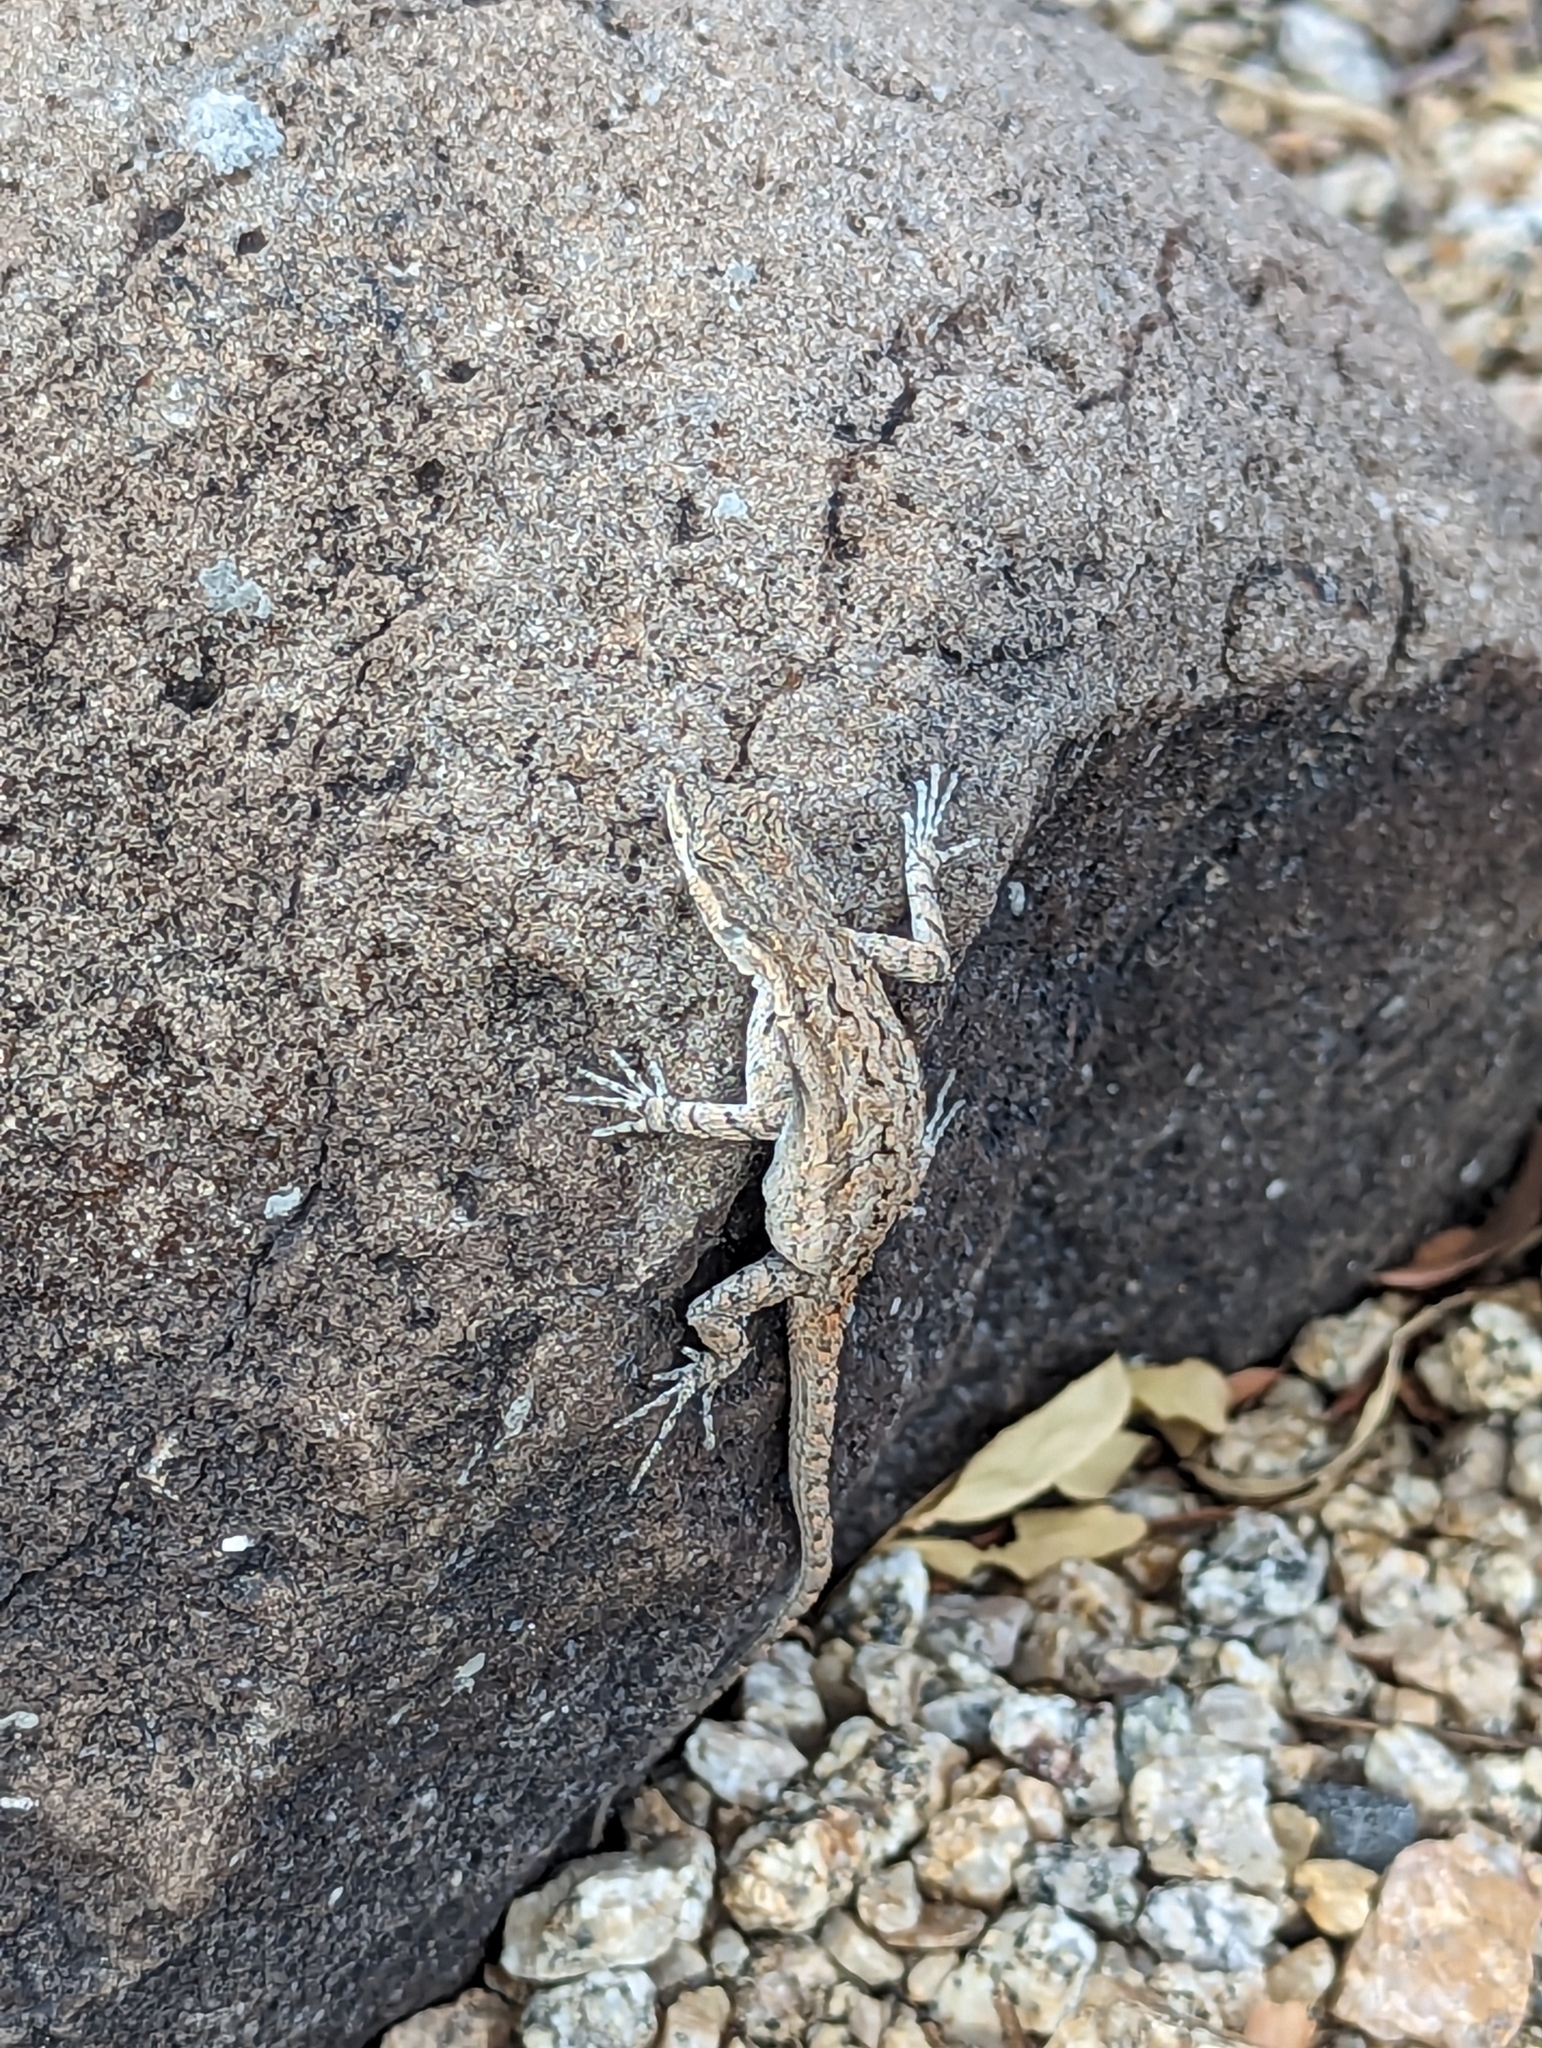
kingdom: Animalia
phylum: Chordata
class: Squamata
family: Phrynosomatidae
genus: Urosaurus
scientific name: Urosaurus ornatus
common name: Ornate tree lizard
